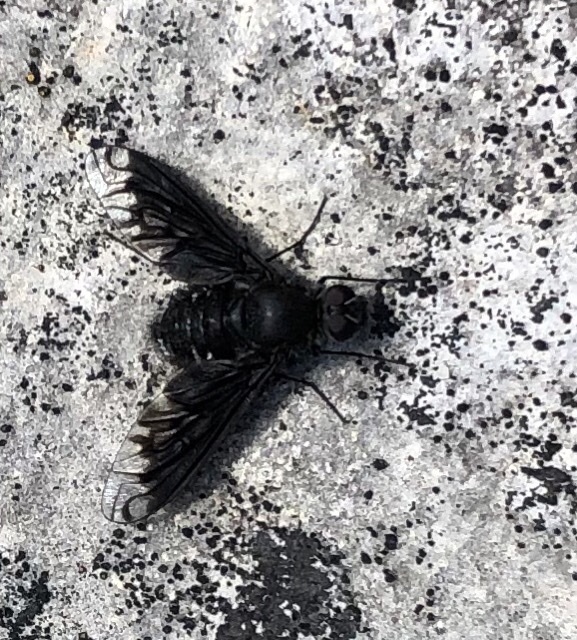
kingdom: Animalia
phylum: Arthropoda
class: Insecta
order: Diptera
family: Bombyliidae
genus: Anthrax
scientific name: Anthrax anthrax
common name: Anthracite bee-fly
